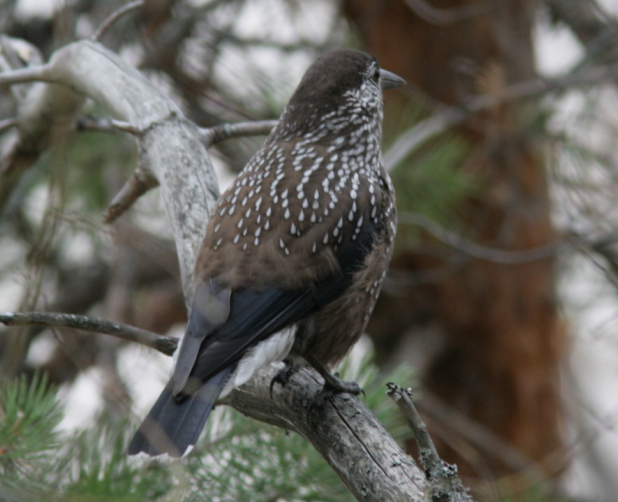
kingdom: Animalia
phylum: Chordata
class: Aves
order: Passeriformes
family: Corvidae
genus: Nucifraga
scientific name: Nucifraga caryocatactes
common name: Spotted nutcracker
